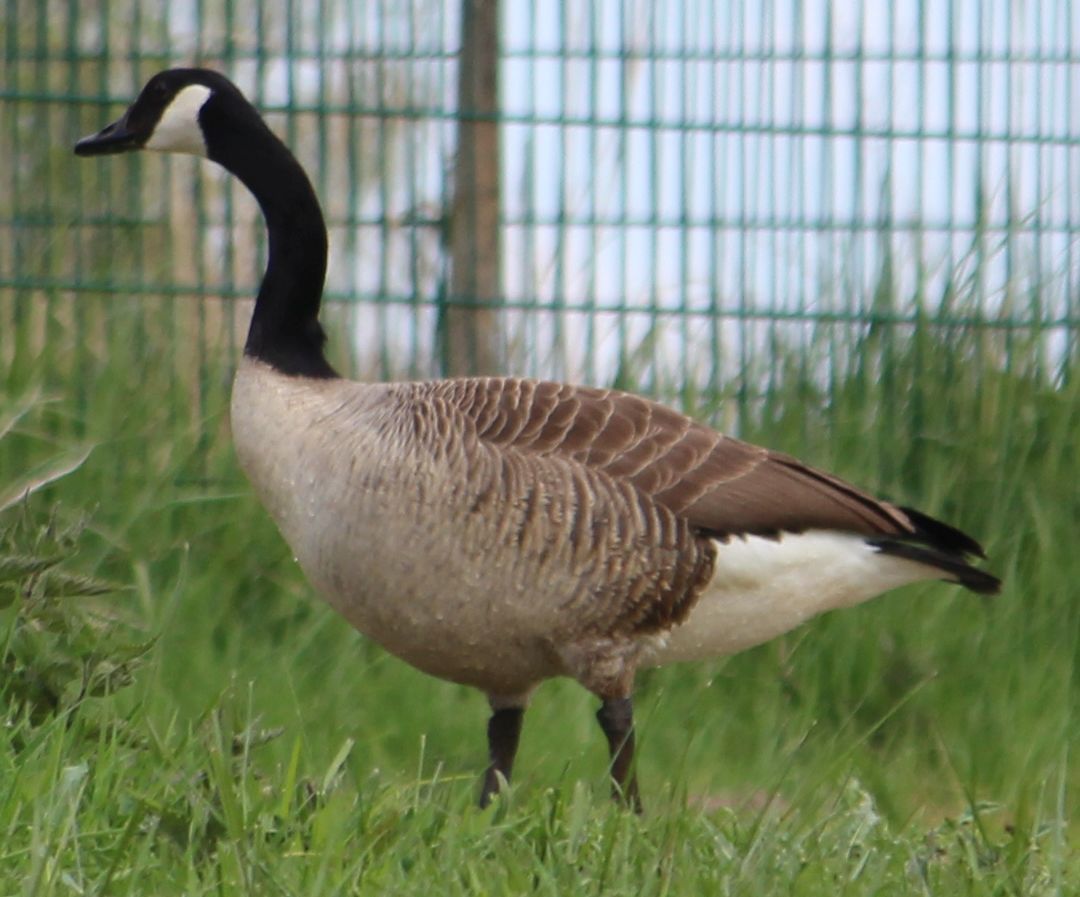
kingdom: Animalia
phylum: Chordata
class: Aves
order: Anseriformes
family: Anatidae
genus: Branta
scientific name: Branta canadensis
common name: Canada goose
